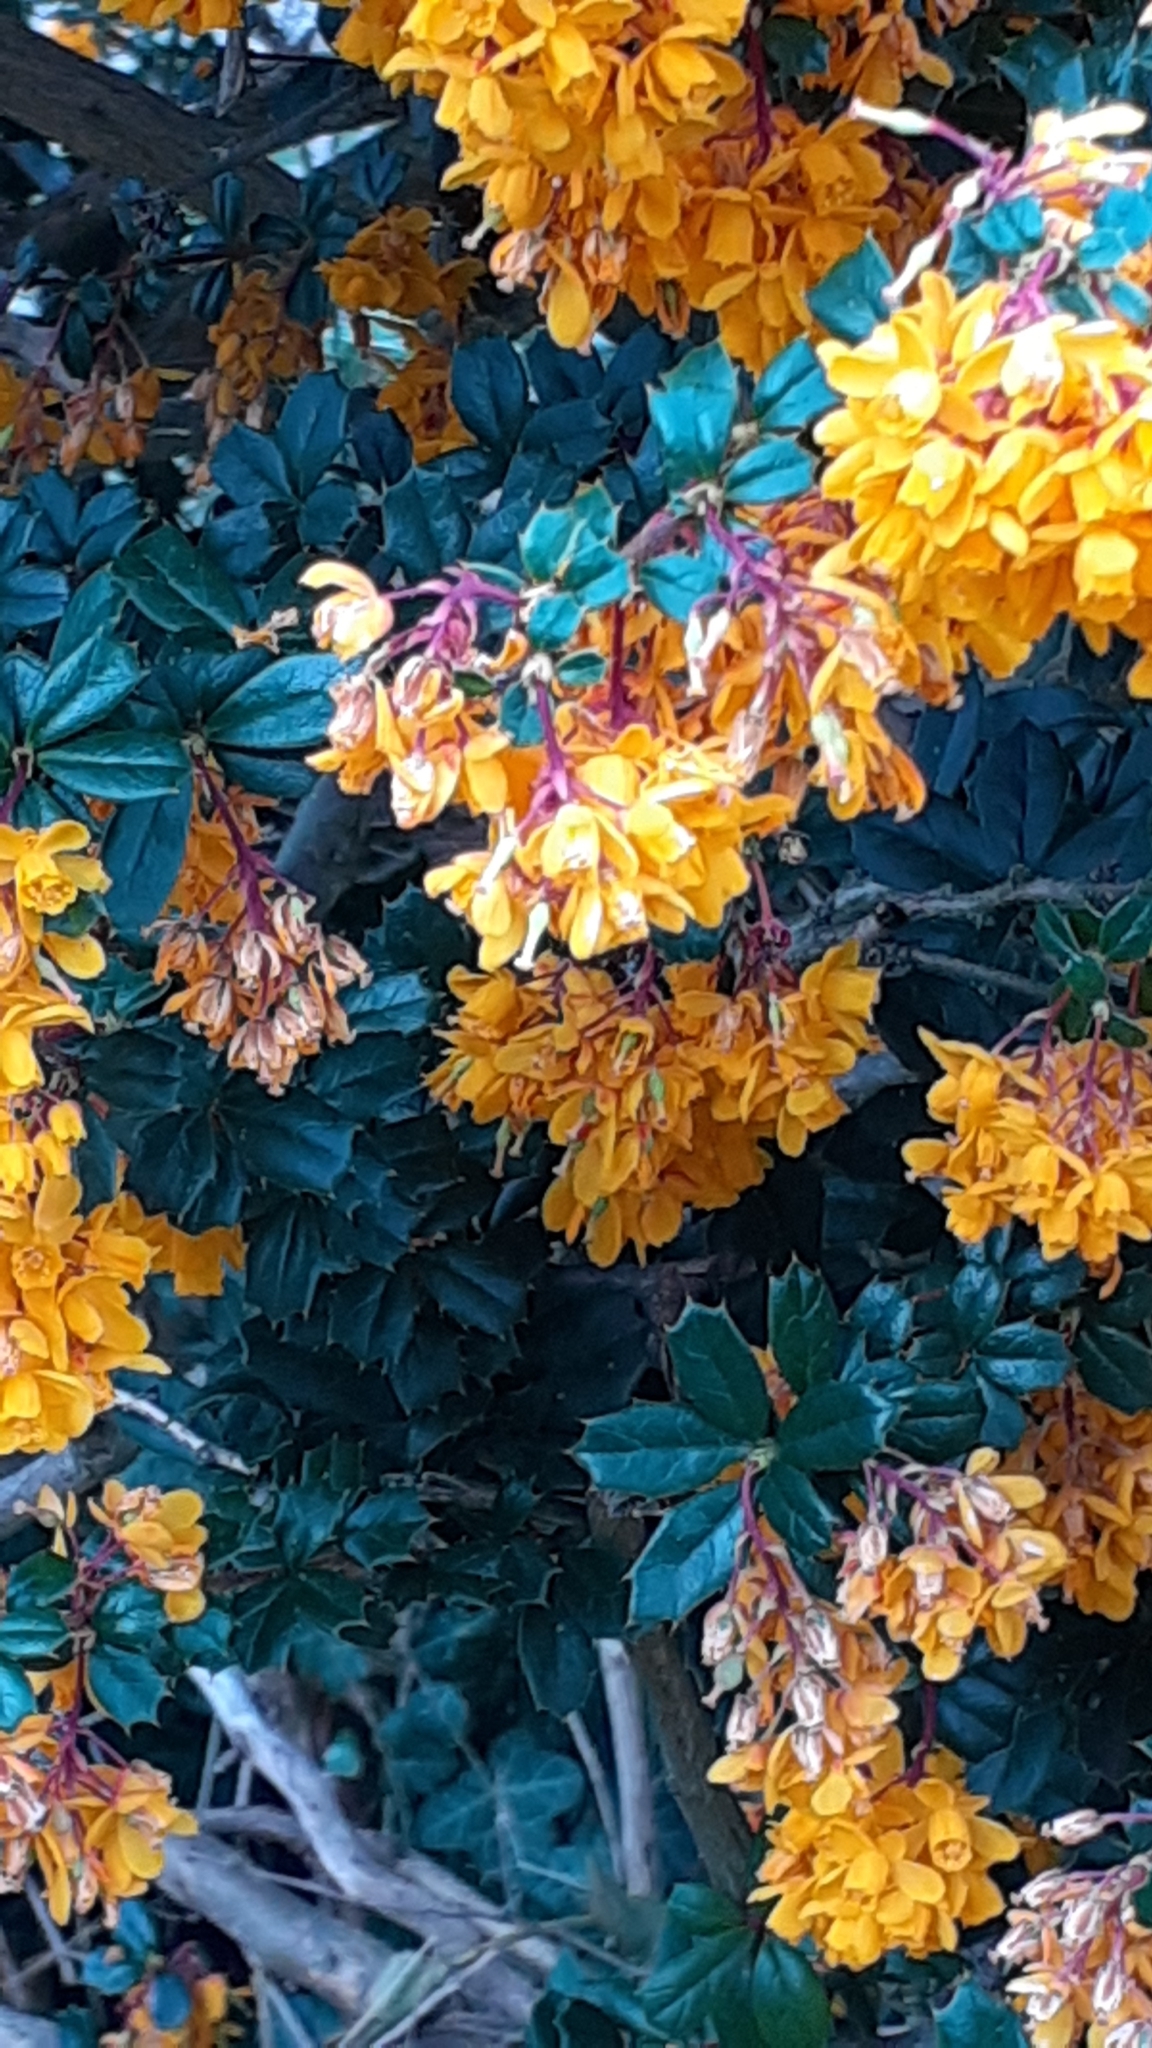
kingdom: Plantae
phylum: Tracheophyta
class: Magnoliopsida
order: Ranunculales
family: Berberidaceae
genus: Berberis
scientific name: Berberis darwinii
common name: Darwin's barberry
